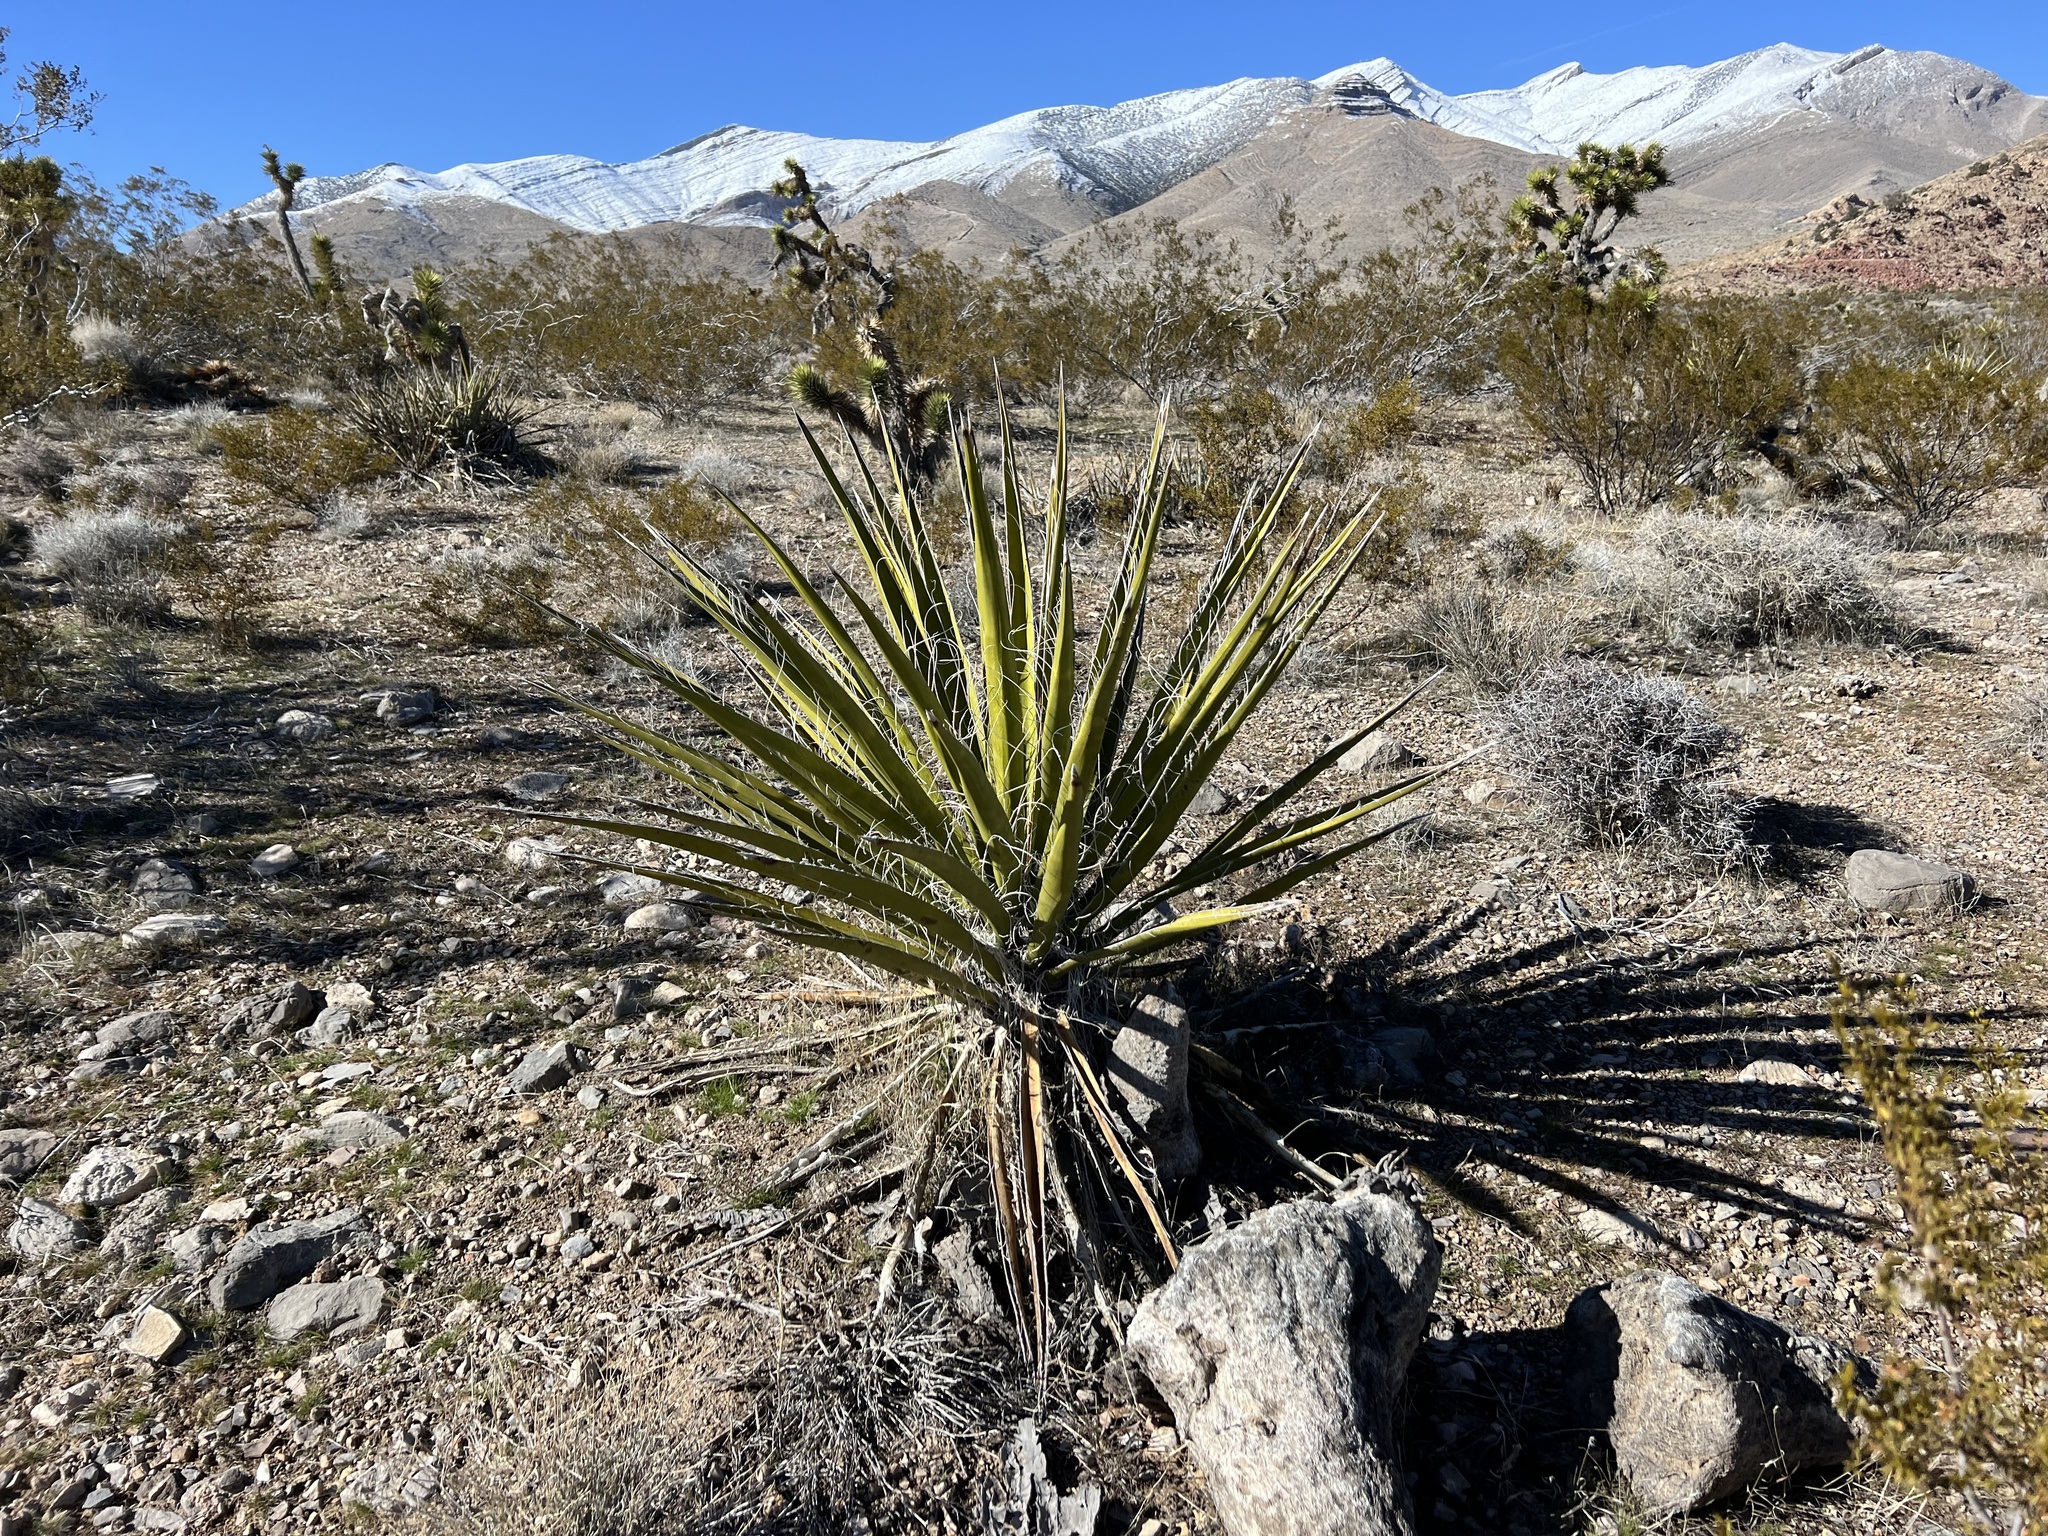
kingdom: Plantae
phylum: Tracheophyta
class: Liliopsida
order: Asparagales
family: Asparagaceae
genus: Yucca
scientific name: Yucca schidigera
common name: Mojave yucca
